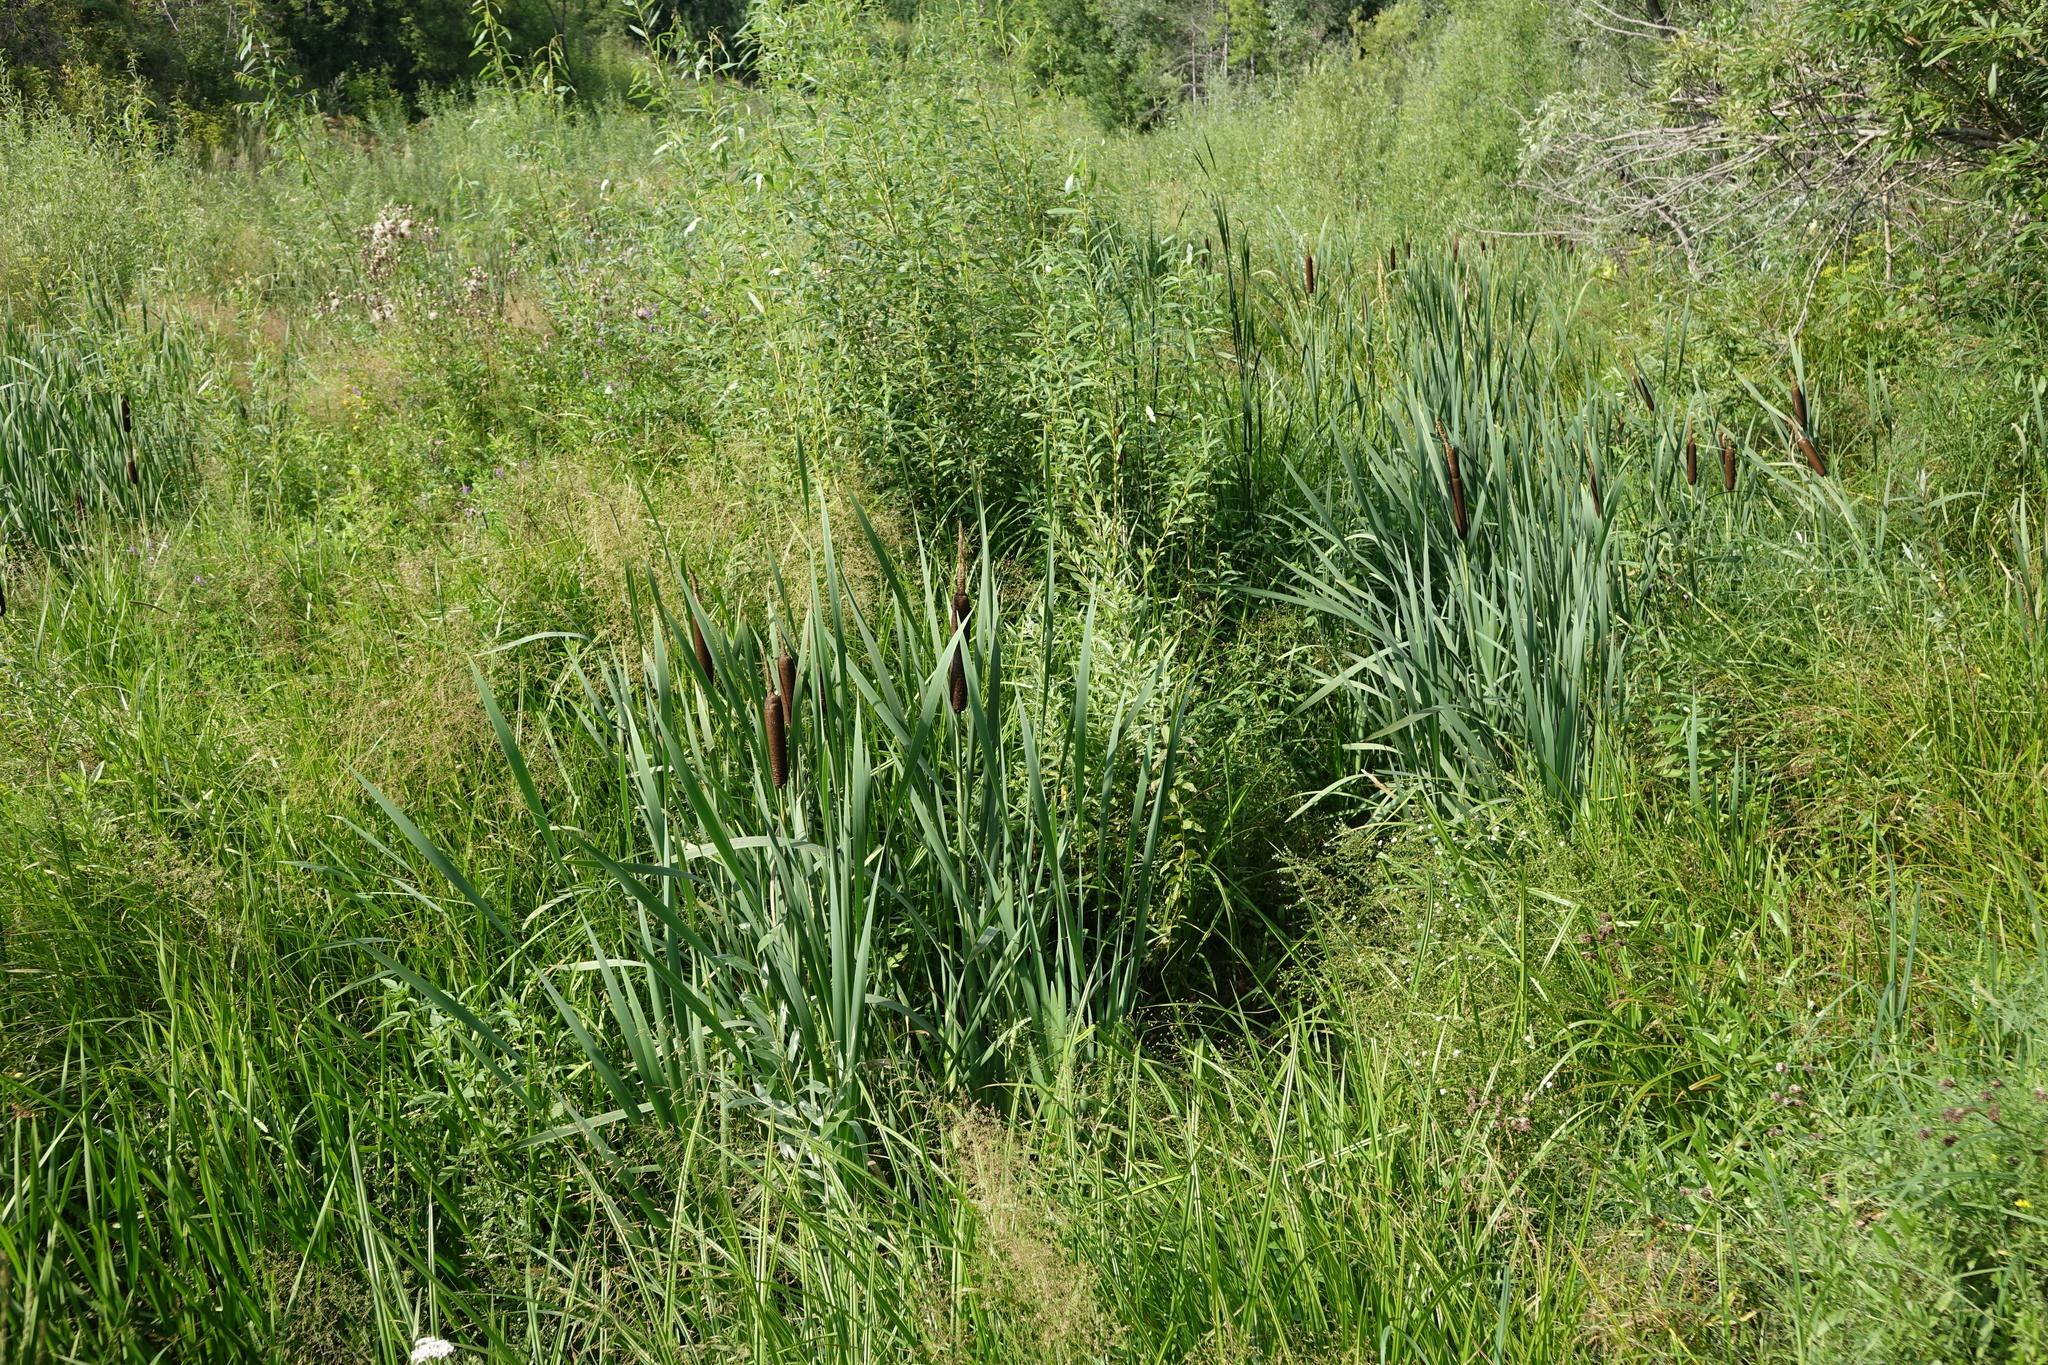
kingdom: Plantae
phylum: Tracheophyta
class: Liliopsida
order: Poales
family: Typhaceae
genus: Typha
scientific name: Typha latifolia
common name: Broadleaf cattail
